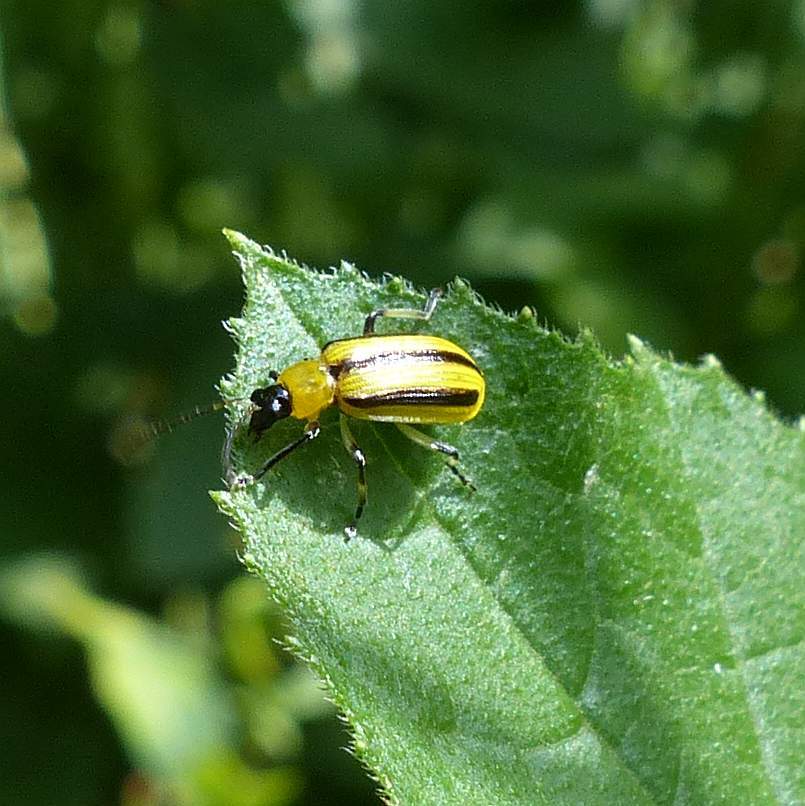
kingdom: Animalia
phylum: Arthropoda
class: Insecta
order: Coleoptera
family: Chrysomelidae
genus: Acalymma
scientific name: Acalymma vittatum
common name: Striped cucumber beetle
